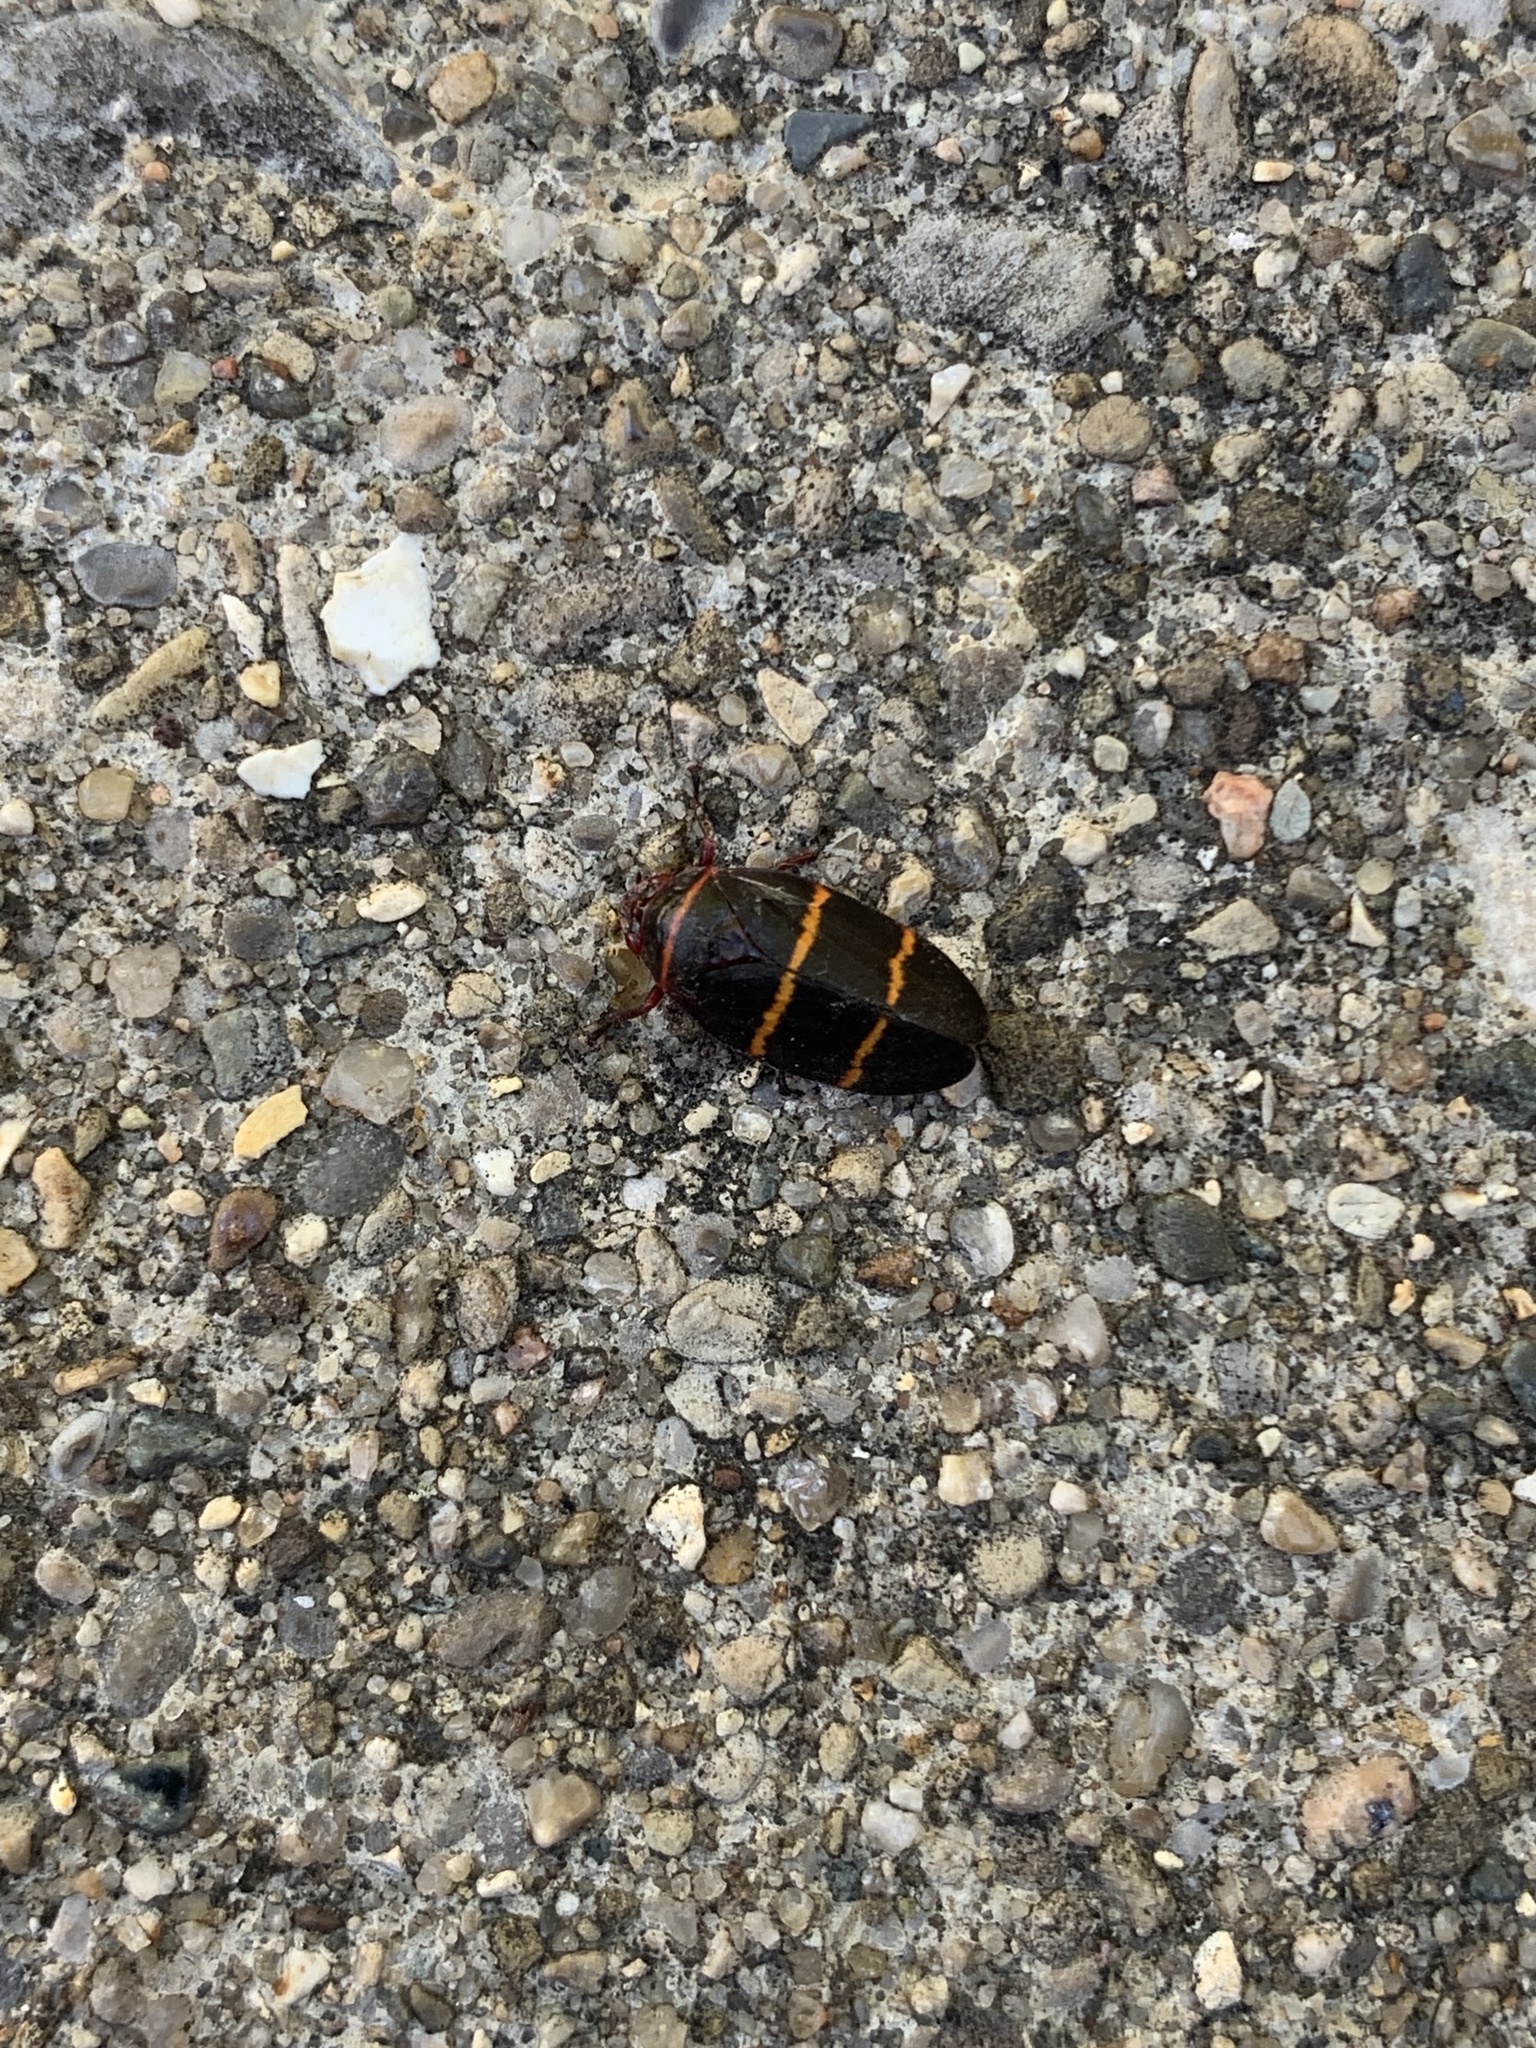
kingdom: Animalia
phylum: Arthropoda
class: Insecta
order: Hemiptera
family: Cercopidae
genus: Prosapia
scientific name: Prosapia bicincta
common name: Twolined spittlebug
